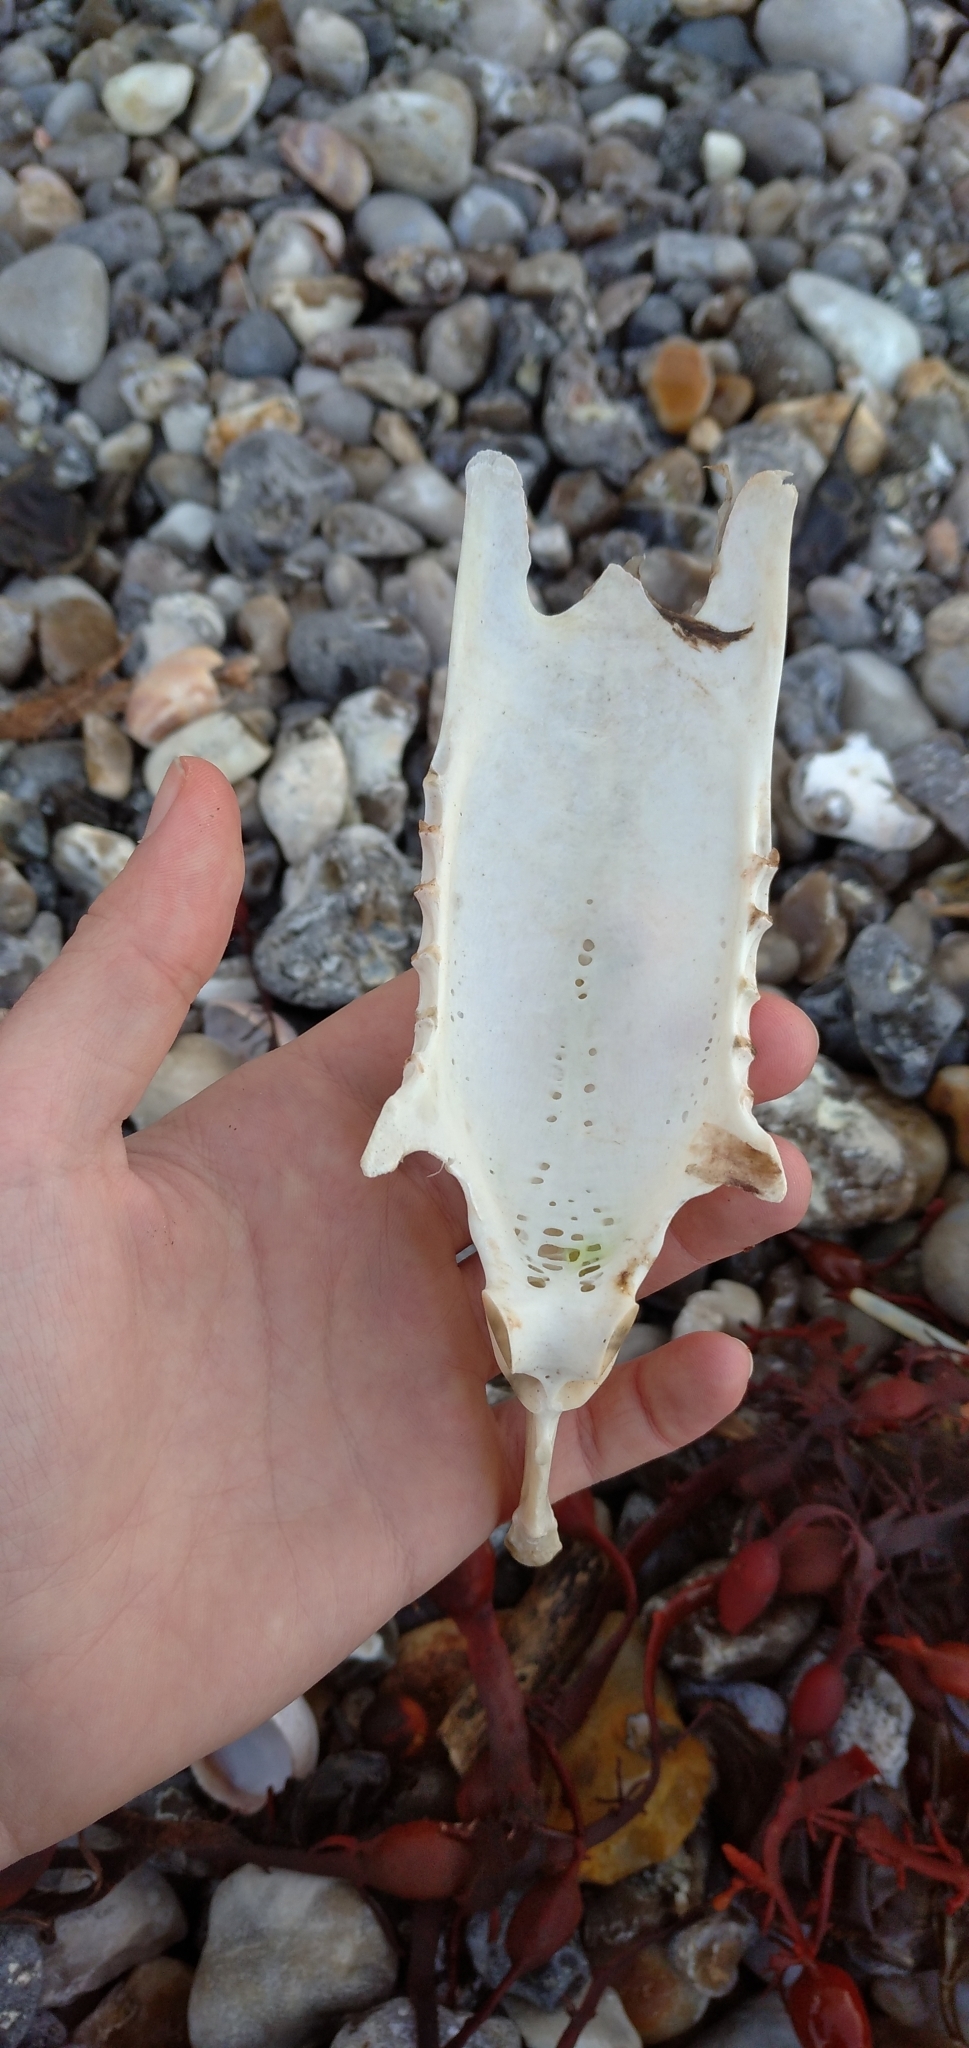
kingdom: Animalia
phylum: Chordata
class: Aves
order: Suliformes
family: Sulidae
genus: Morus
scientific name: Morus bassanus
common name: Northern gannet
